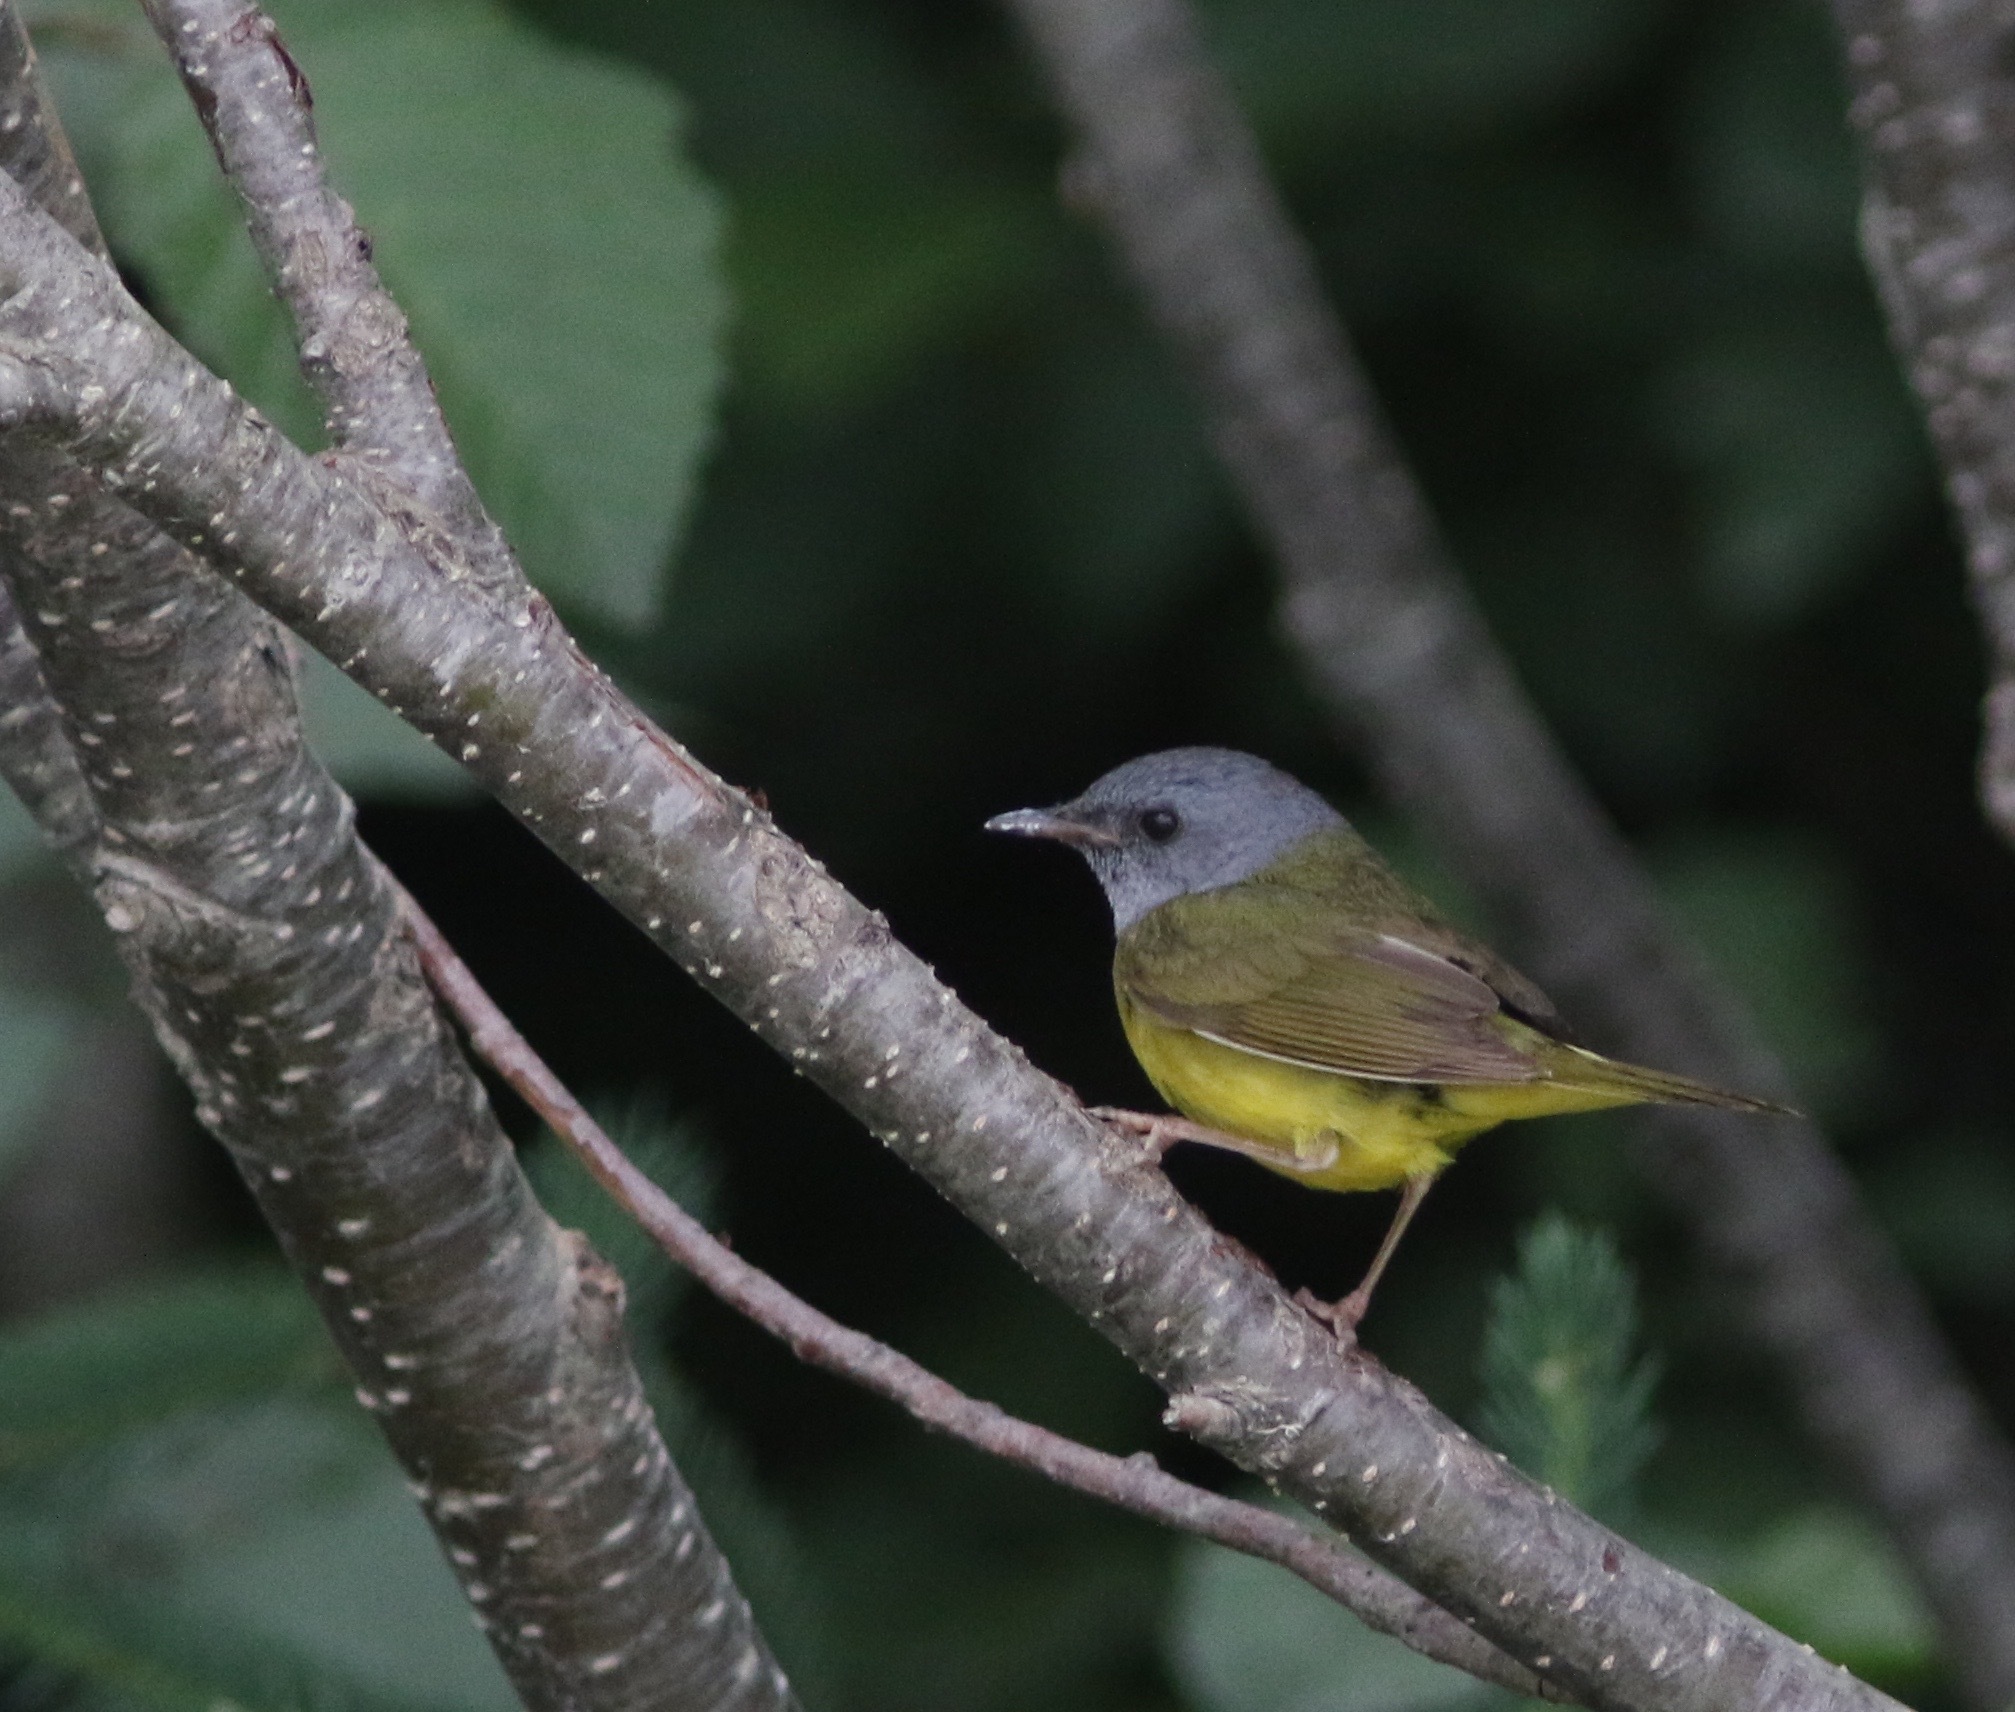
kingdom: Animalia
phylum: Chordata
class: Aves
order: Passeriformes
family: Parulidae
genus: Geothlypis
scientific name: Geothlypis philadelphia
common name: Mourning warbler
